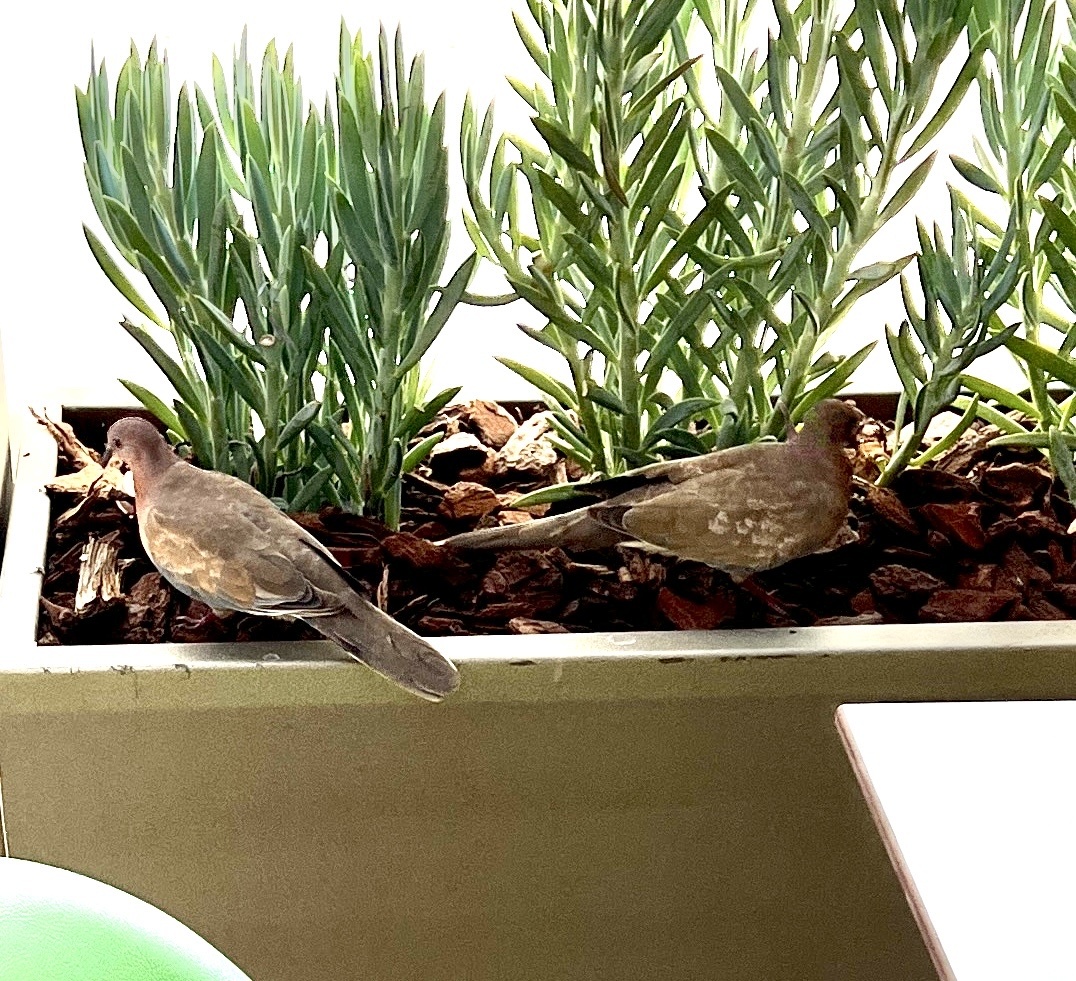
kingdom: Animalia
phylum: Chordata
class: Aves
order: Columbiformes
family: Columbidae
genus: Spilopelia
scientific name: Spilopelia senegalensis
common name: Laughing dove
